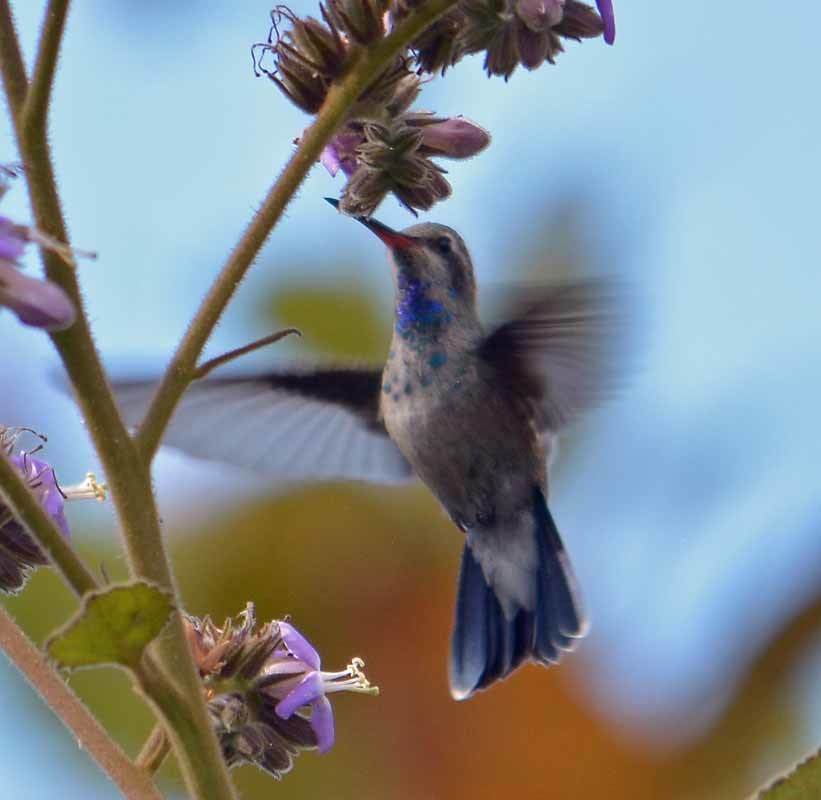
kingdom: Animalia
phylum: Chordata
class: Aves
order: Apodiformes
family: Trochilidae
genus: Cynanthus
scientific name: Cynanthus latirostris
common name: Broad-billed hummingbird
